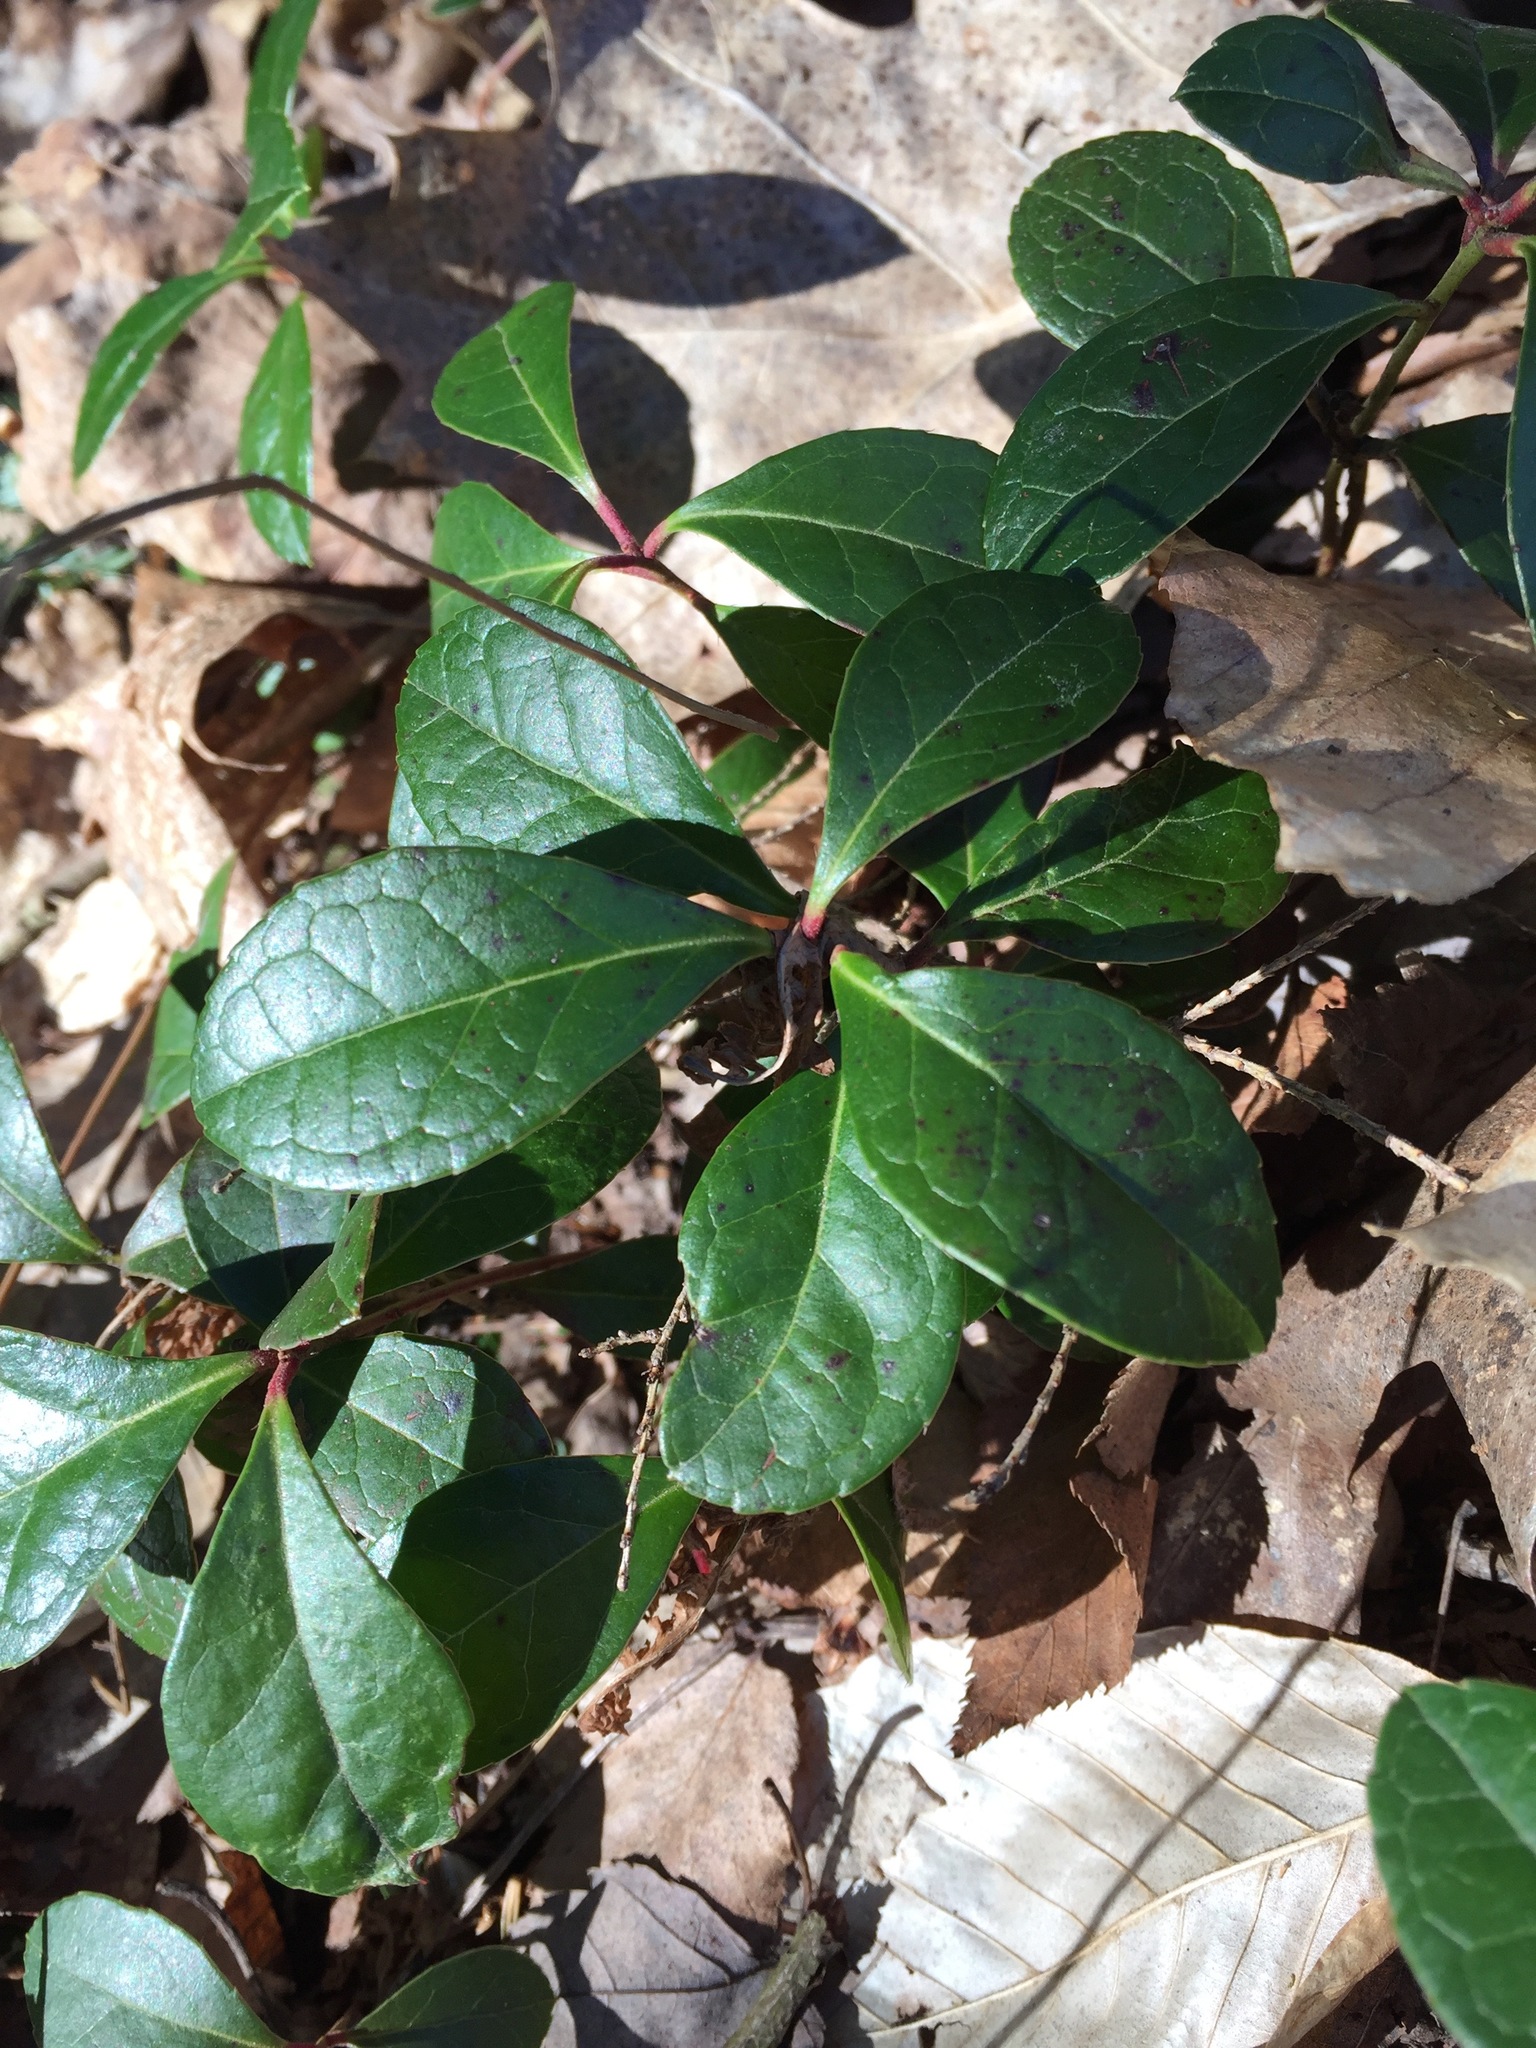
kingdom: Plantae
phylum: Tracheophyta
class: Magnoliopsida
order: Ericales
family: Ericaceae
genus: Gaultheria
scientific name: Gaultheria procumbens
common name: Checkerberry
